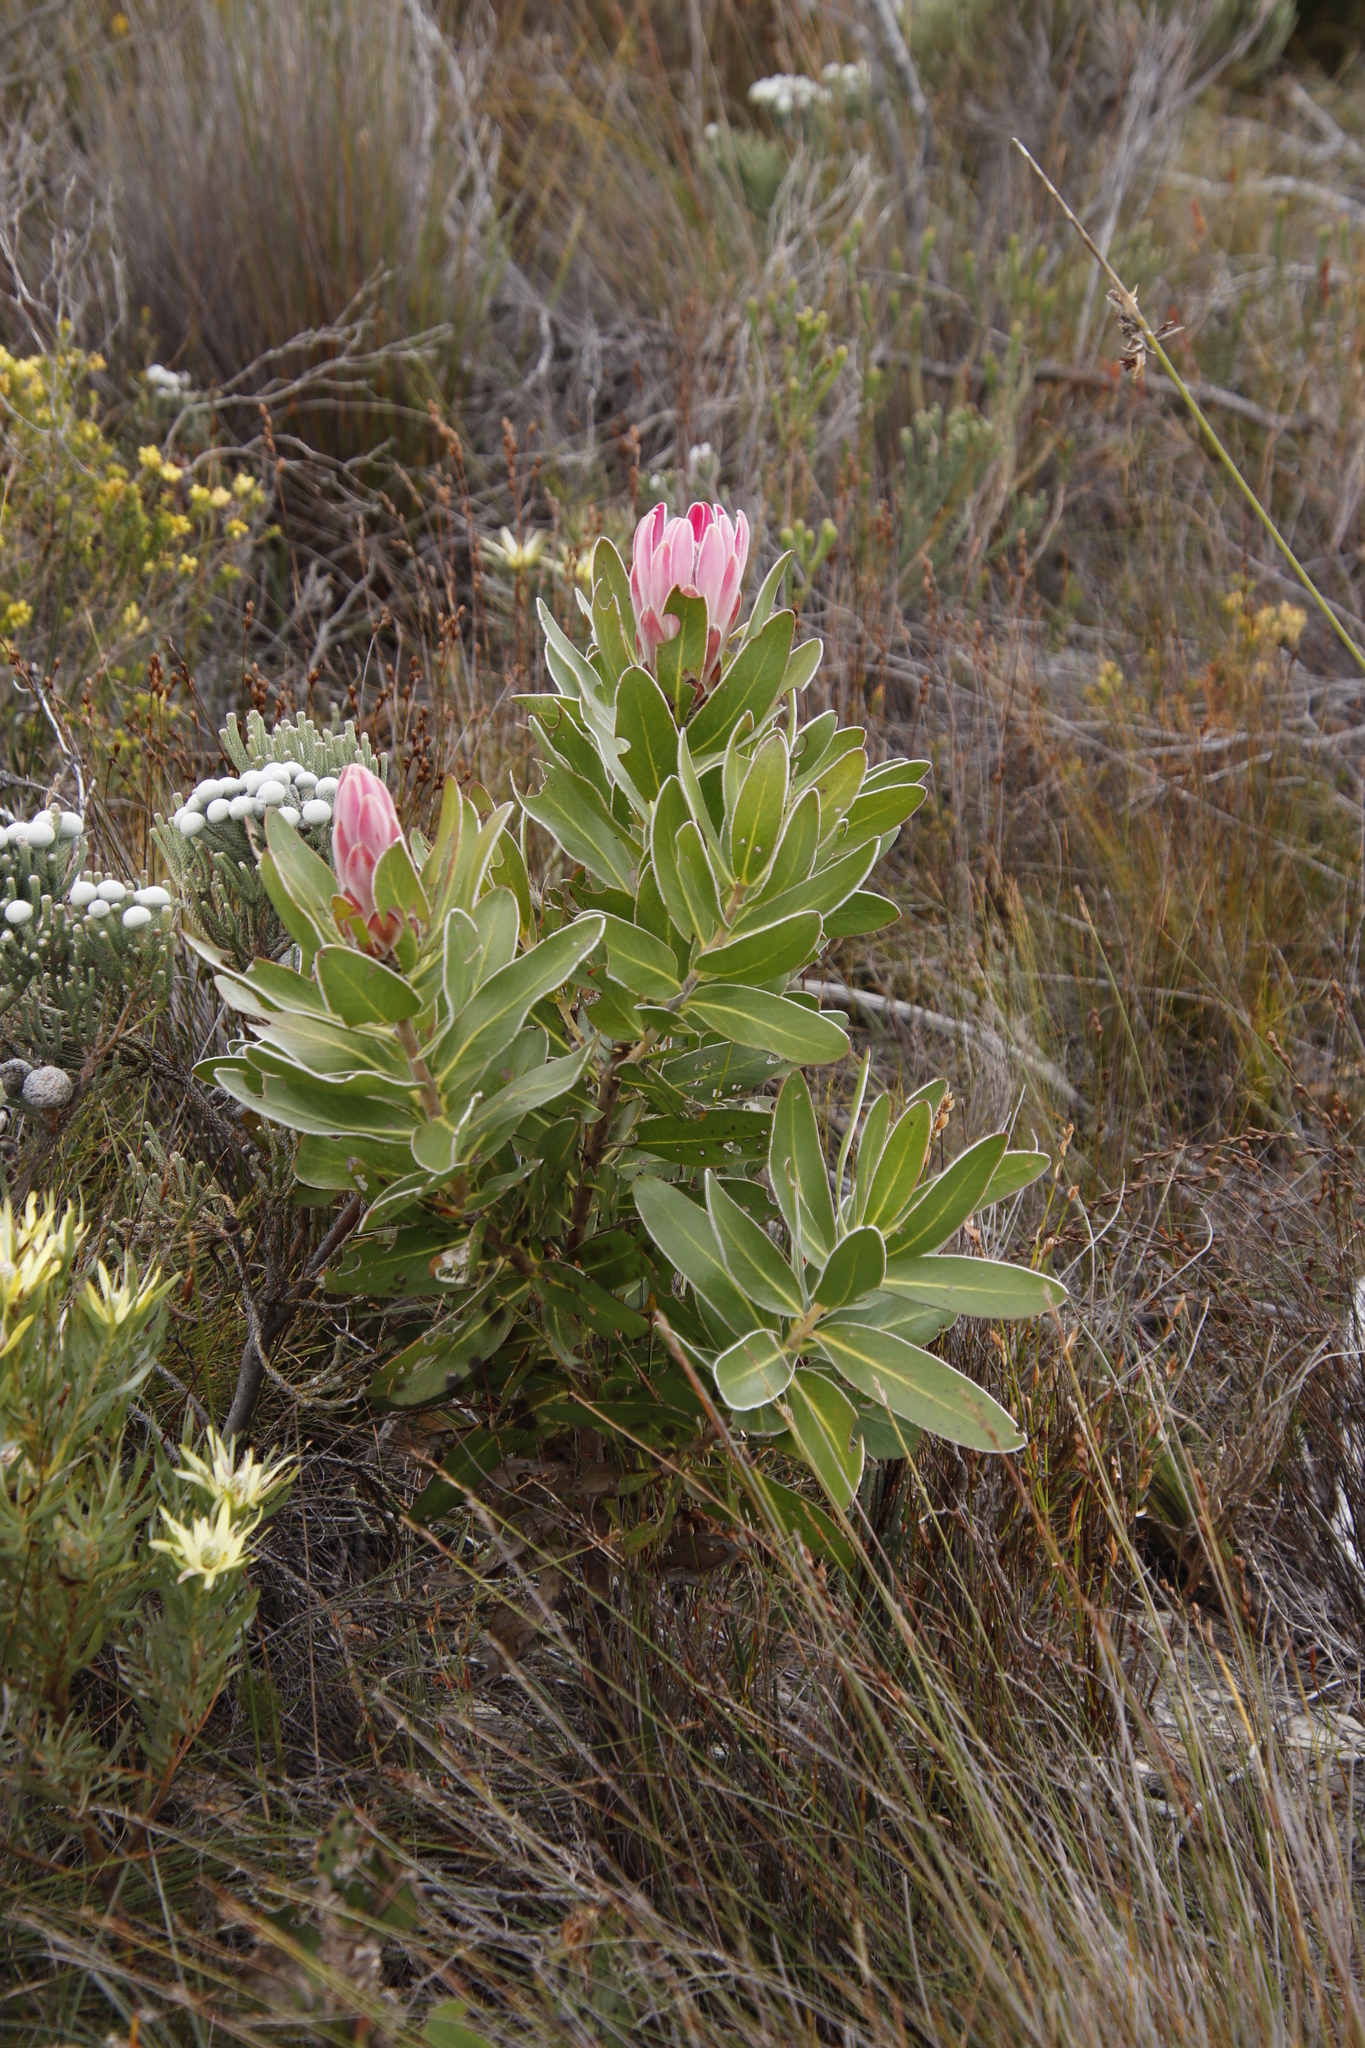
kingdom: Plantae
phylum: Tracheophyta
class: Magnoliopsida
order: Proteales
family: Proteaceae
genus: Protea
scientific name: Protea compacta
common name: Bot river protea
